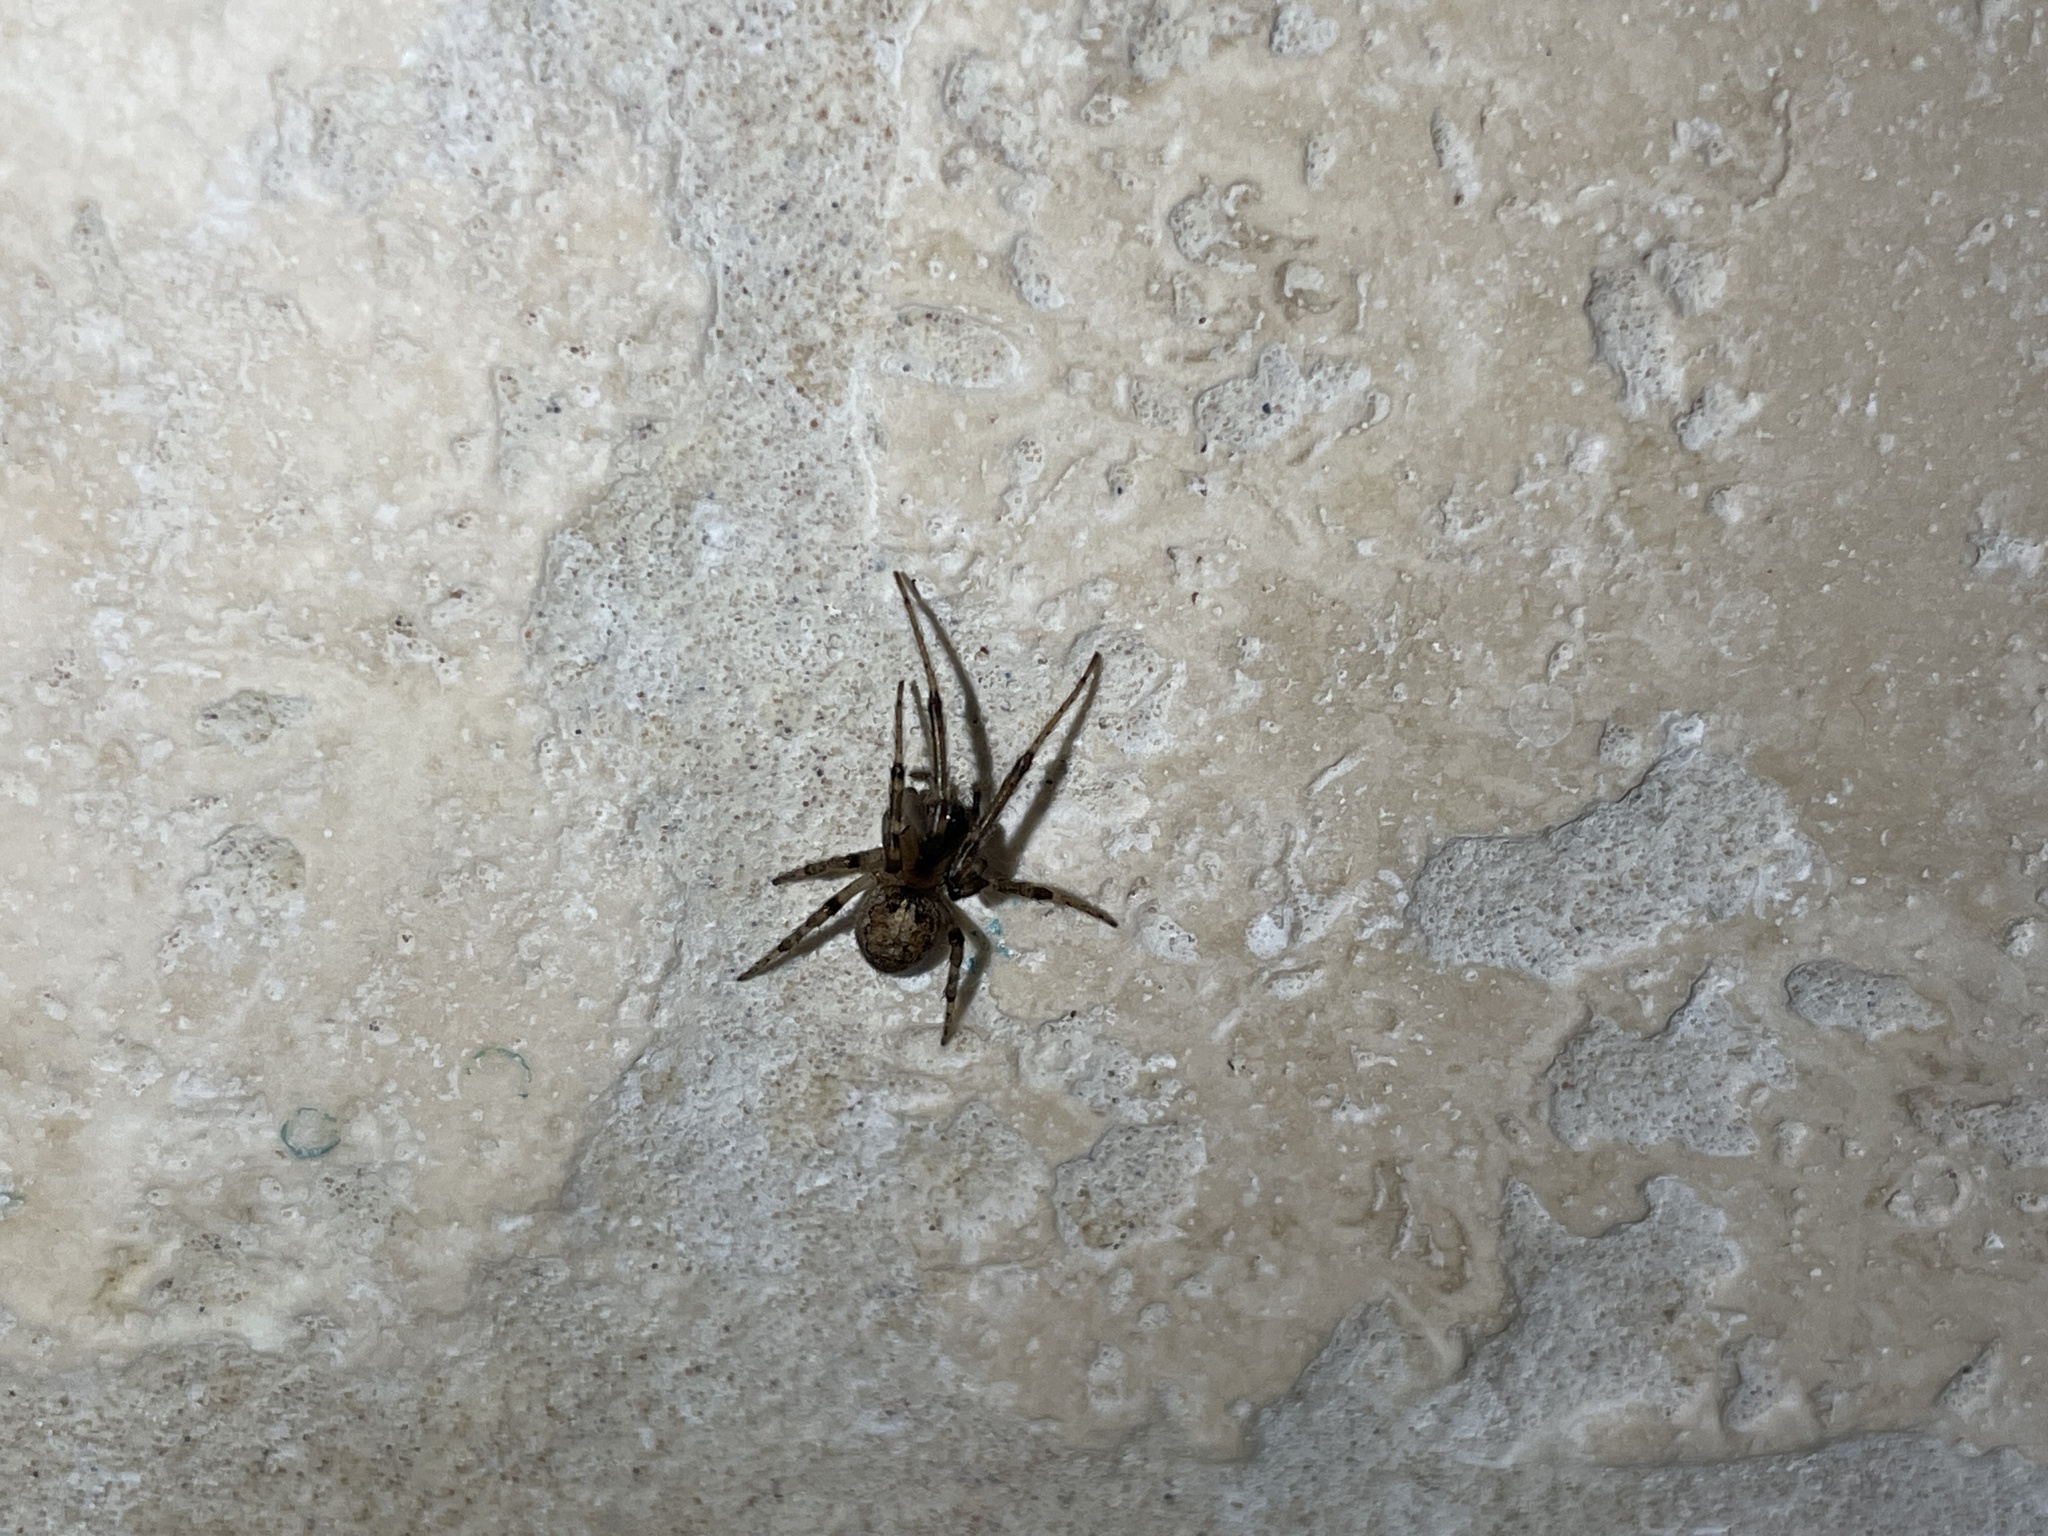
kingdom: Animalia
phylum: Arthropoda
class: Arachnida
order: Araneae
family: Araneidae
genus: Zygiella
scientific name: Zygiella x-notata
